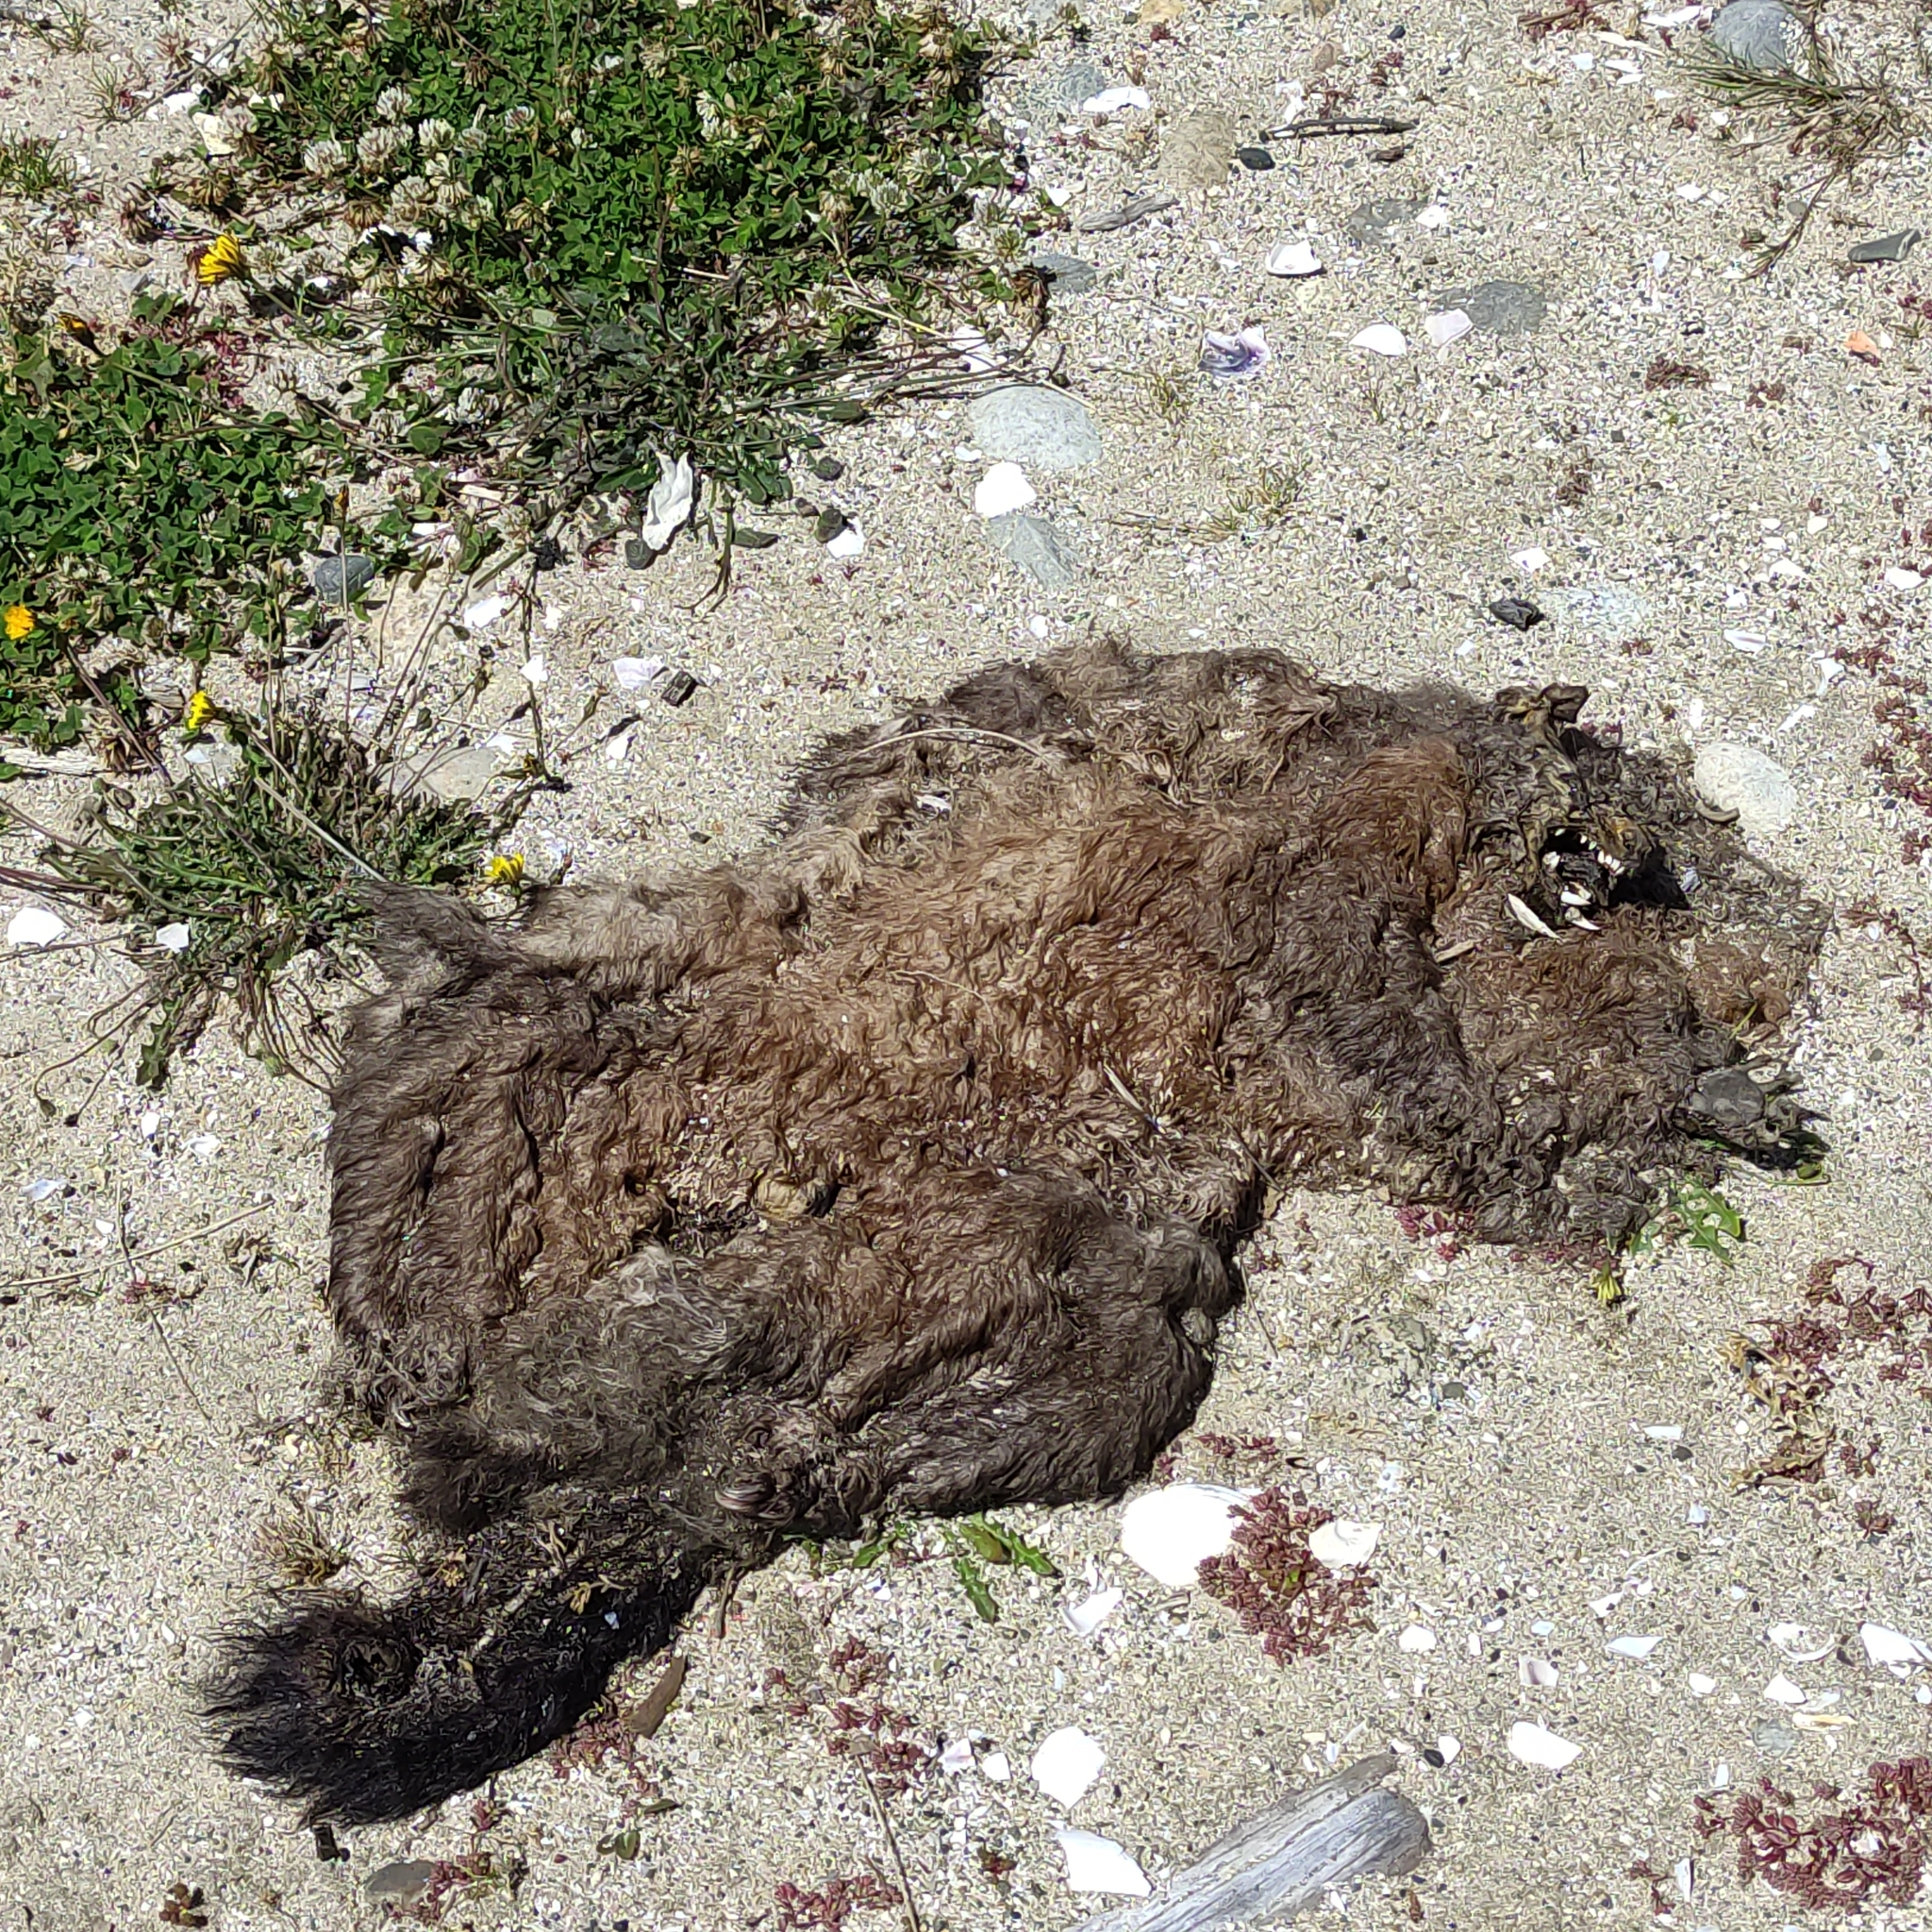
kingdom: Animalia
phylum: Chordata
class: Mammalia
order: Diprotodontia
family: Phalangeridae
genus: Trichosurus
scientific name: Trichosurus vulpecula
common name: Common brushtail
